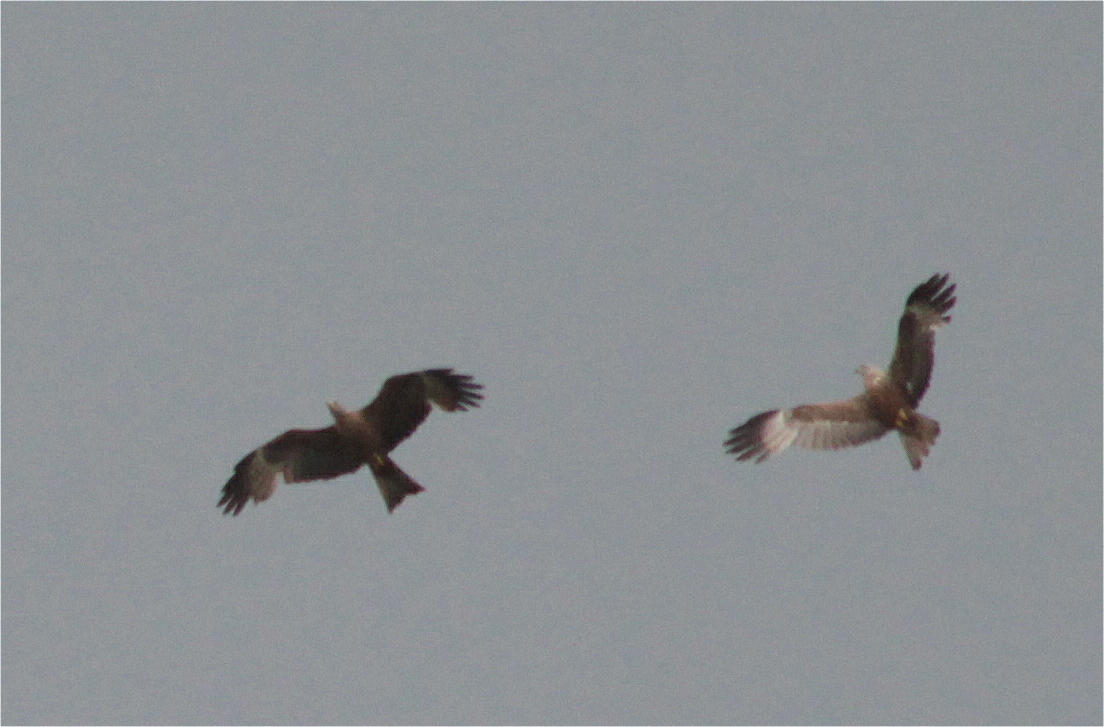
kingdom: Animalia
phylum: Chordata
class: Aves
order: Accipitriformes
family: Accipitridae
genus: Milvus
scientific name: Milvus migrans
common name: Black kite
